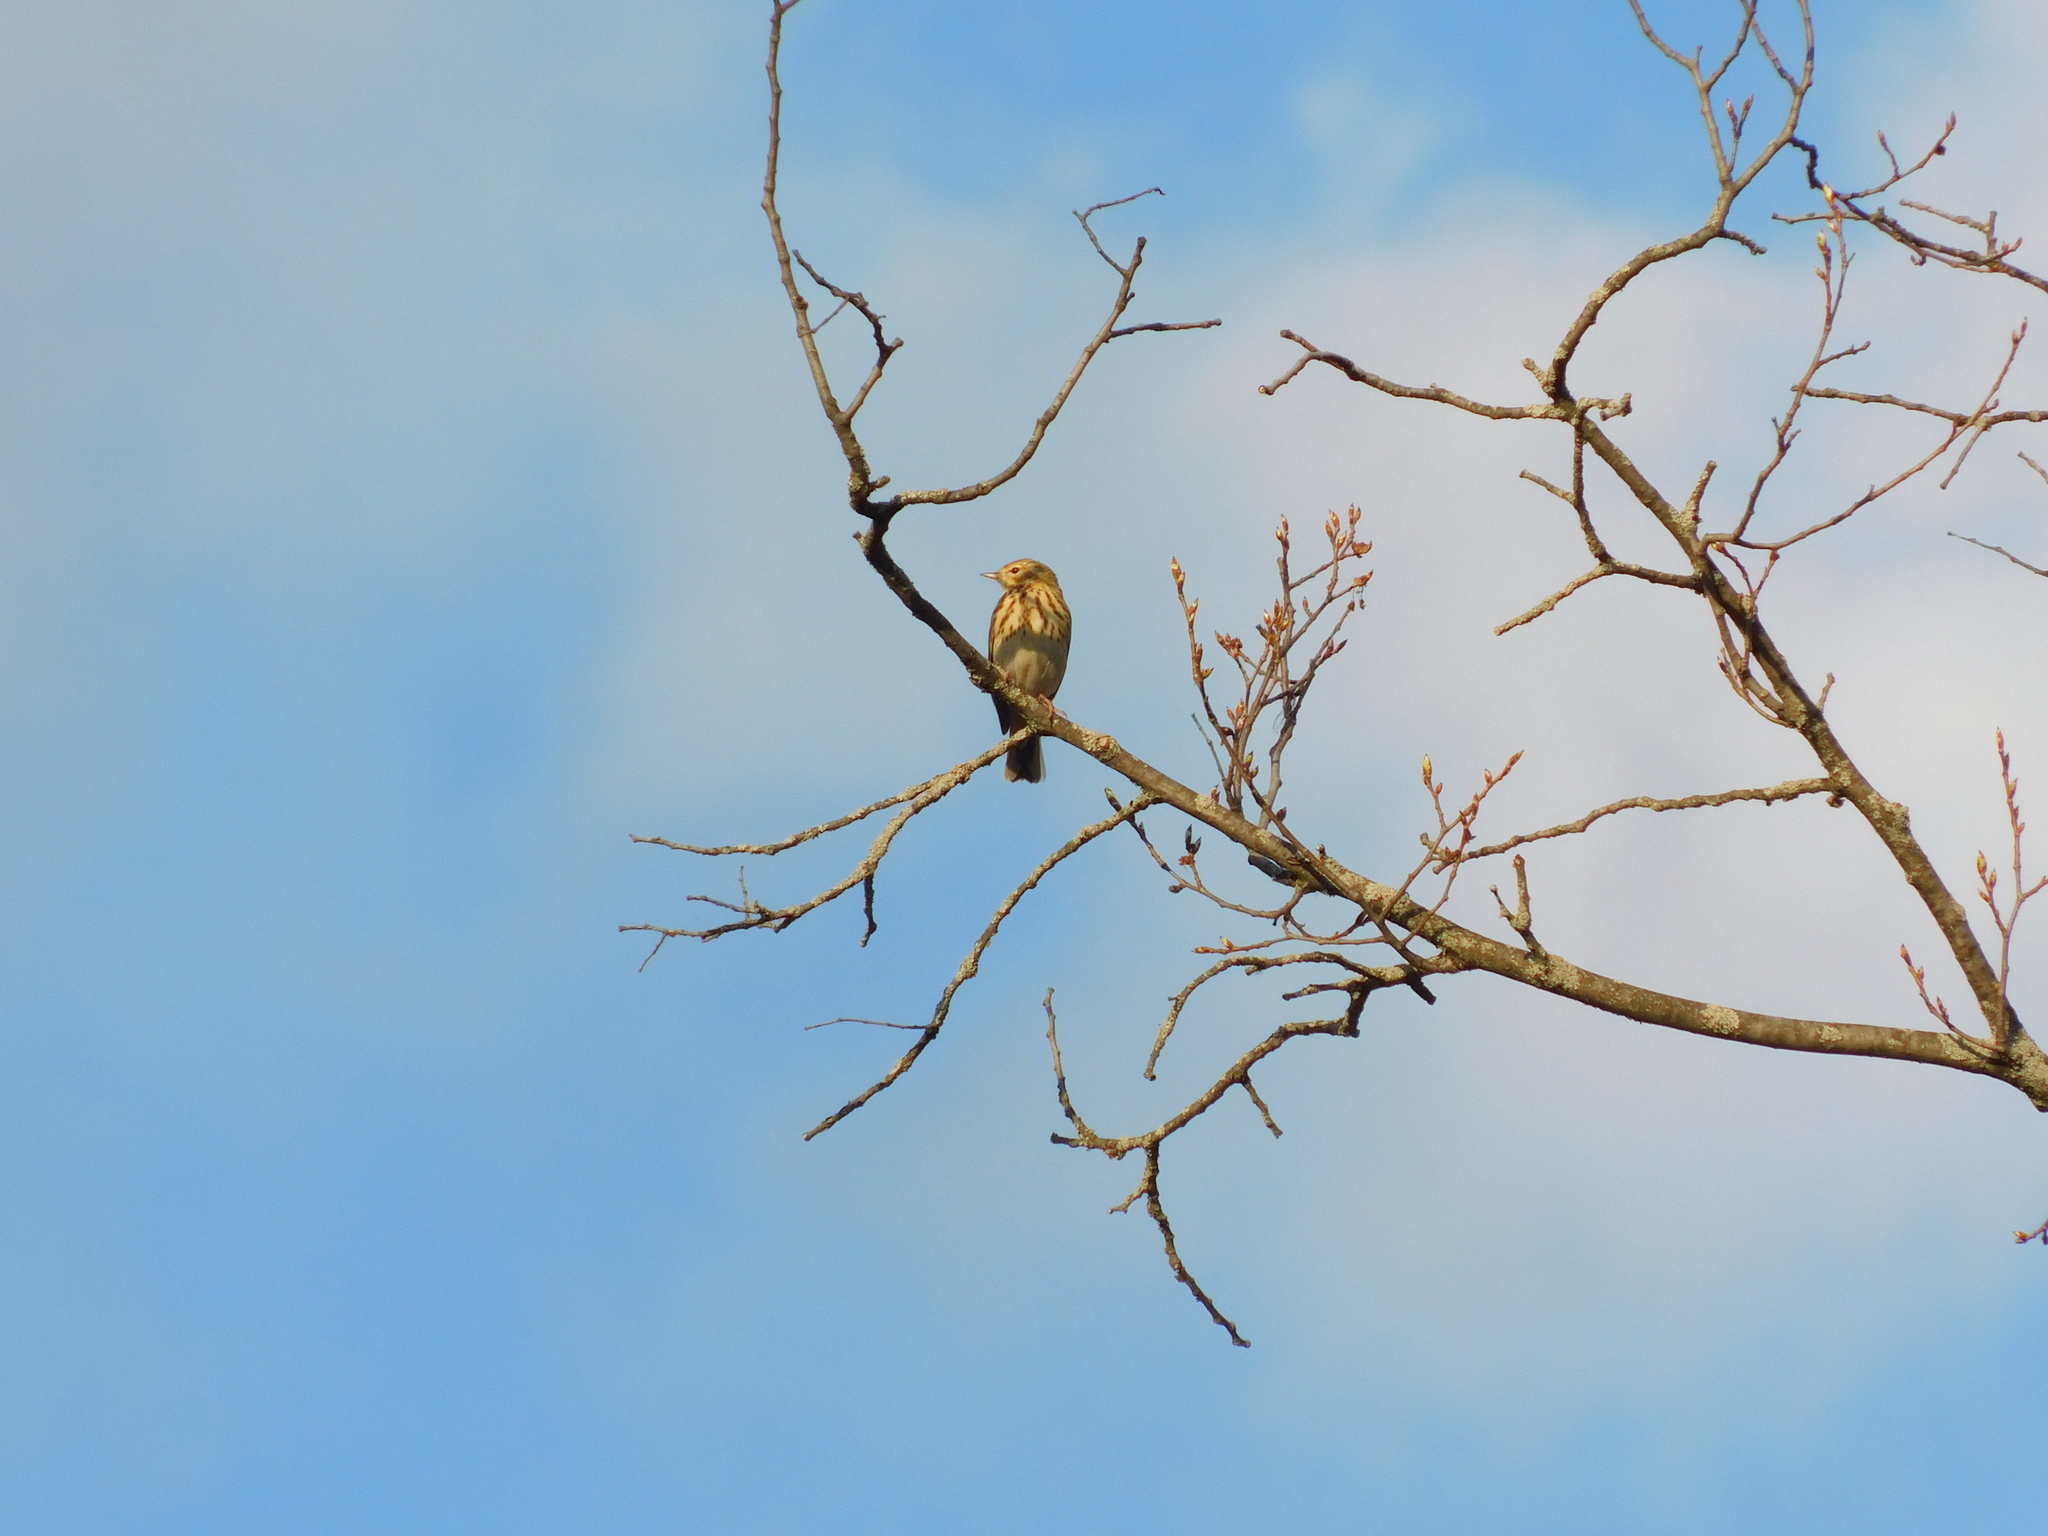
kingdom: Animalia
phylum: Chordata
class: Aves
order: Passeriformes
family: Motacillidae
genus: Anthus
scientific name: Anthus trivialis
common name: Tree pipit
